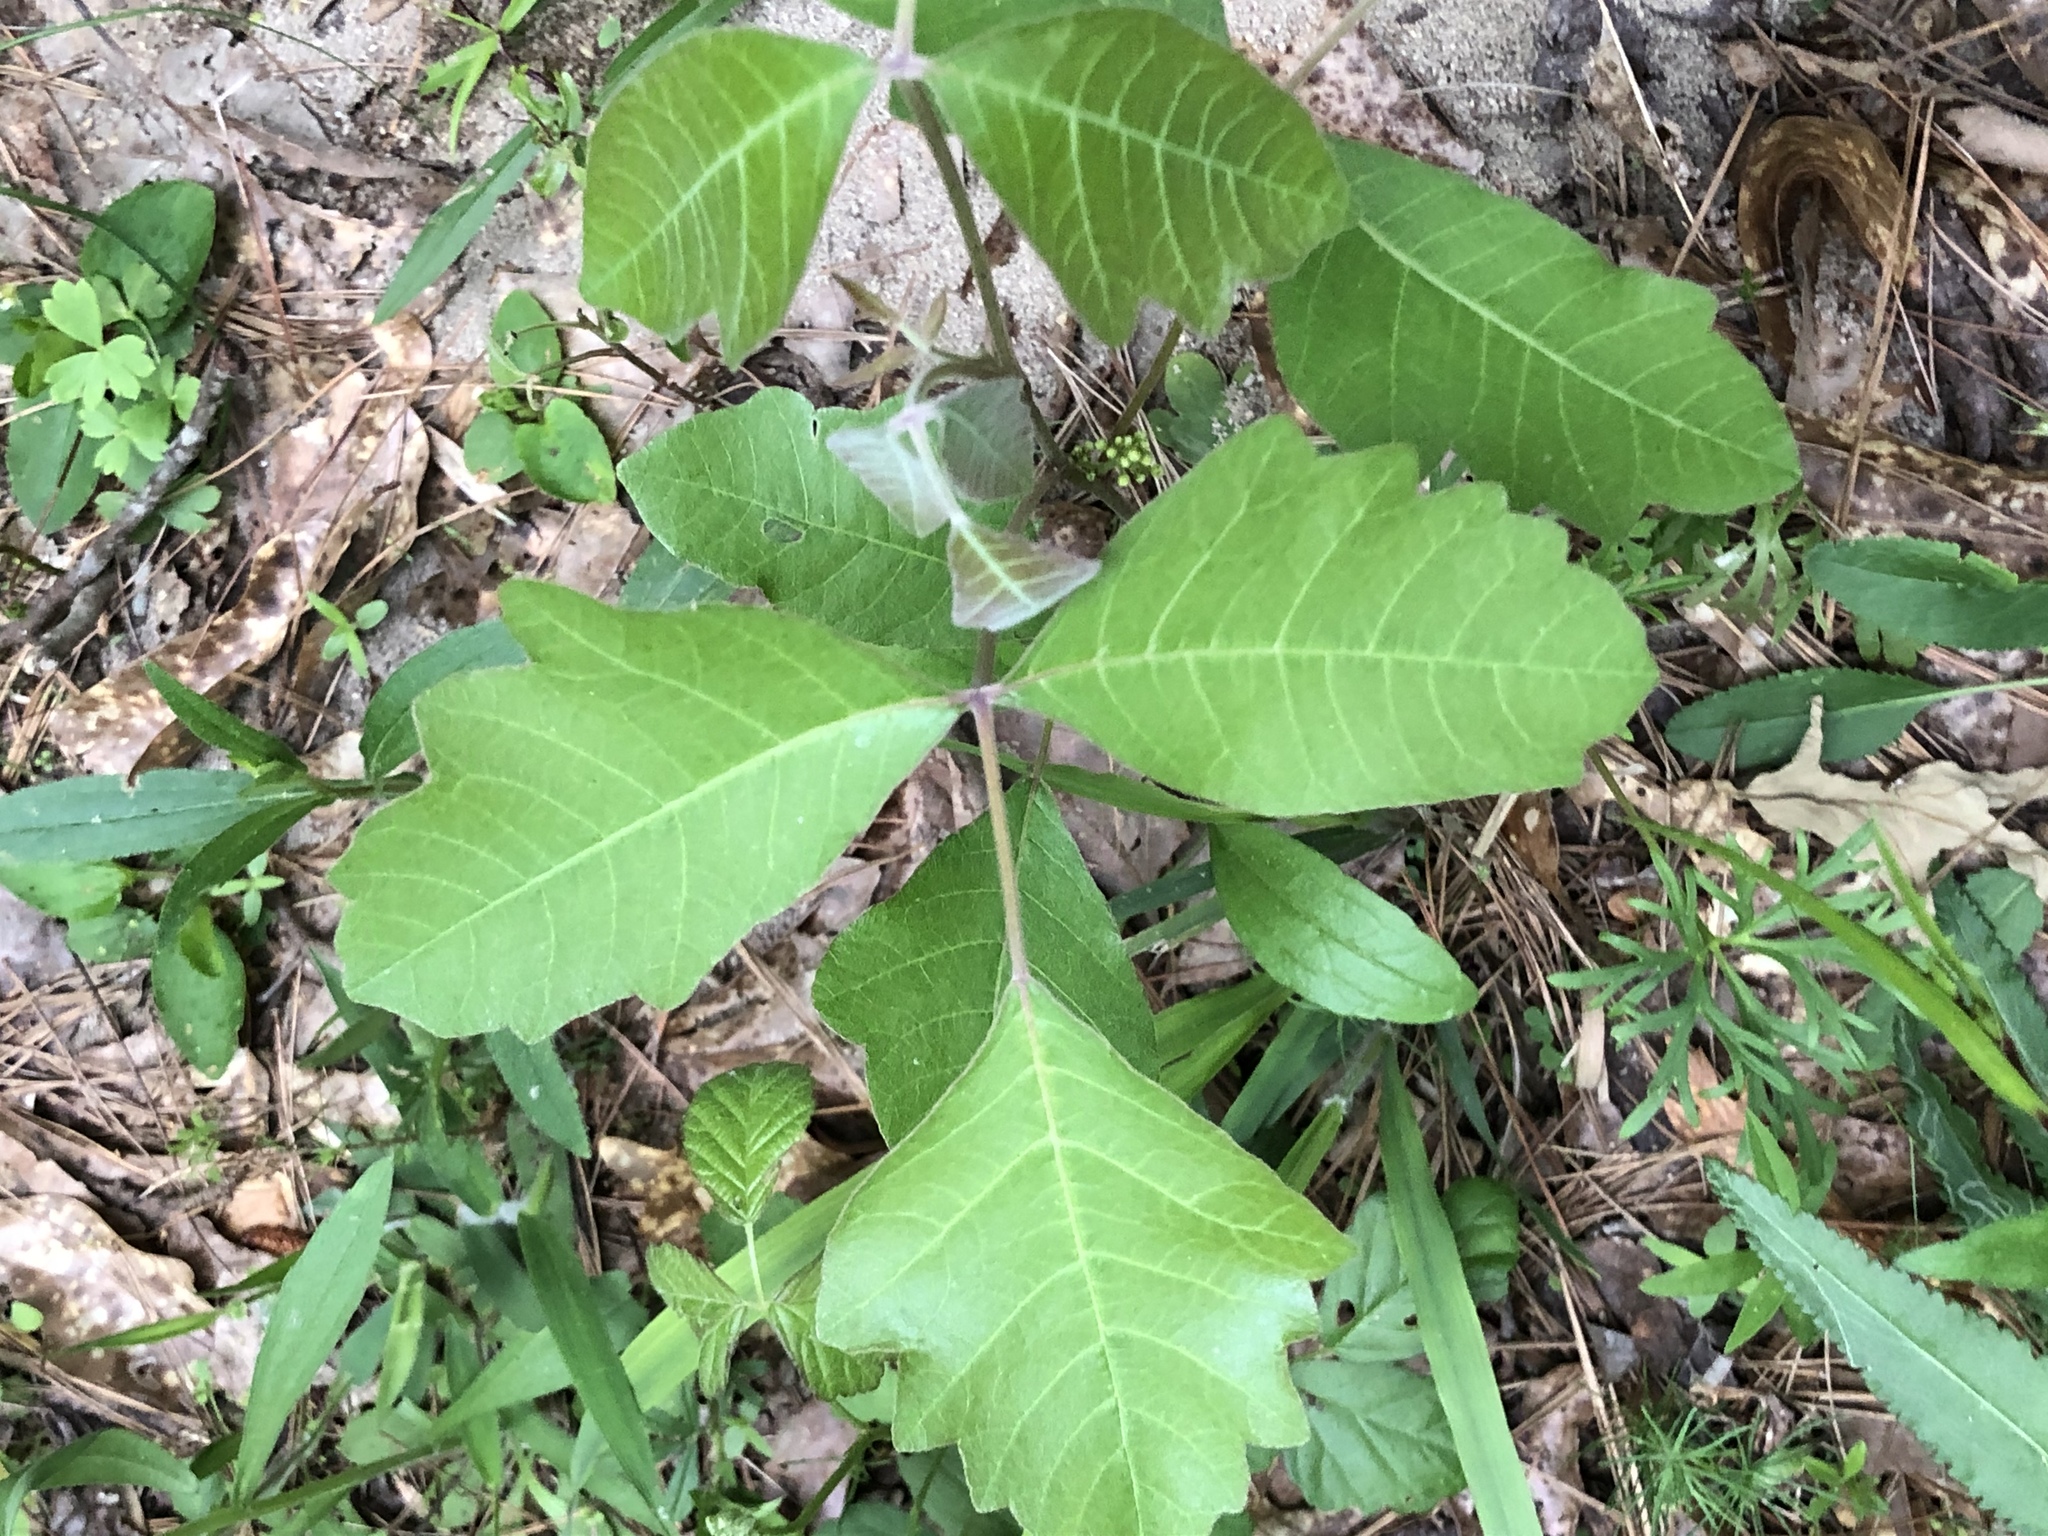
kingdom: Plantae
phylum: Tracheophyta
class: Magnoliopsida
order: Sapindales
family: Anacardiaceae
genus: Toxicodendron
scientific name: Toxicodendron pubescens
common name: Eastern poison-oak
